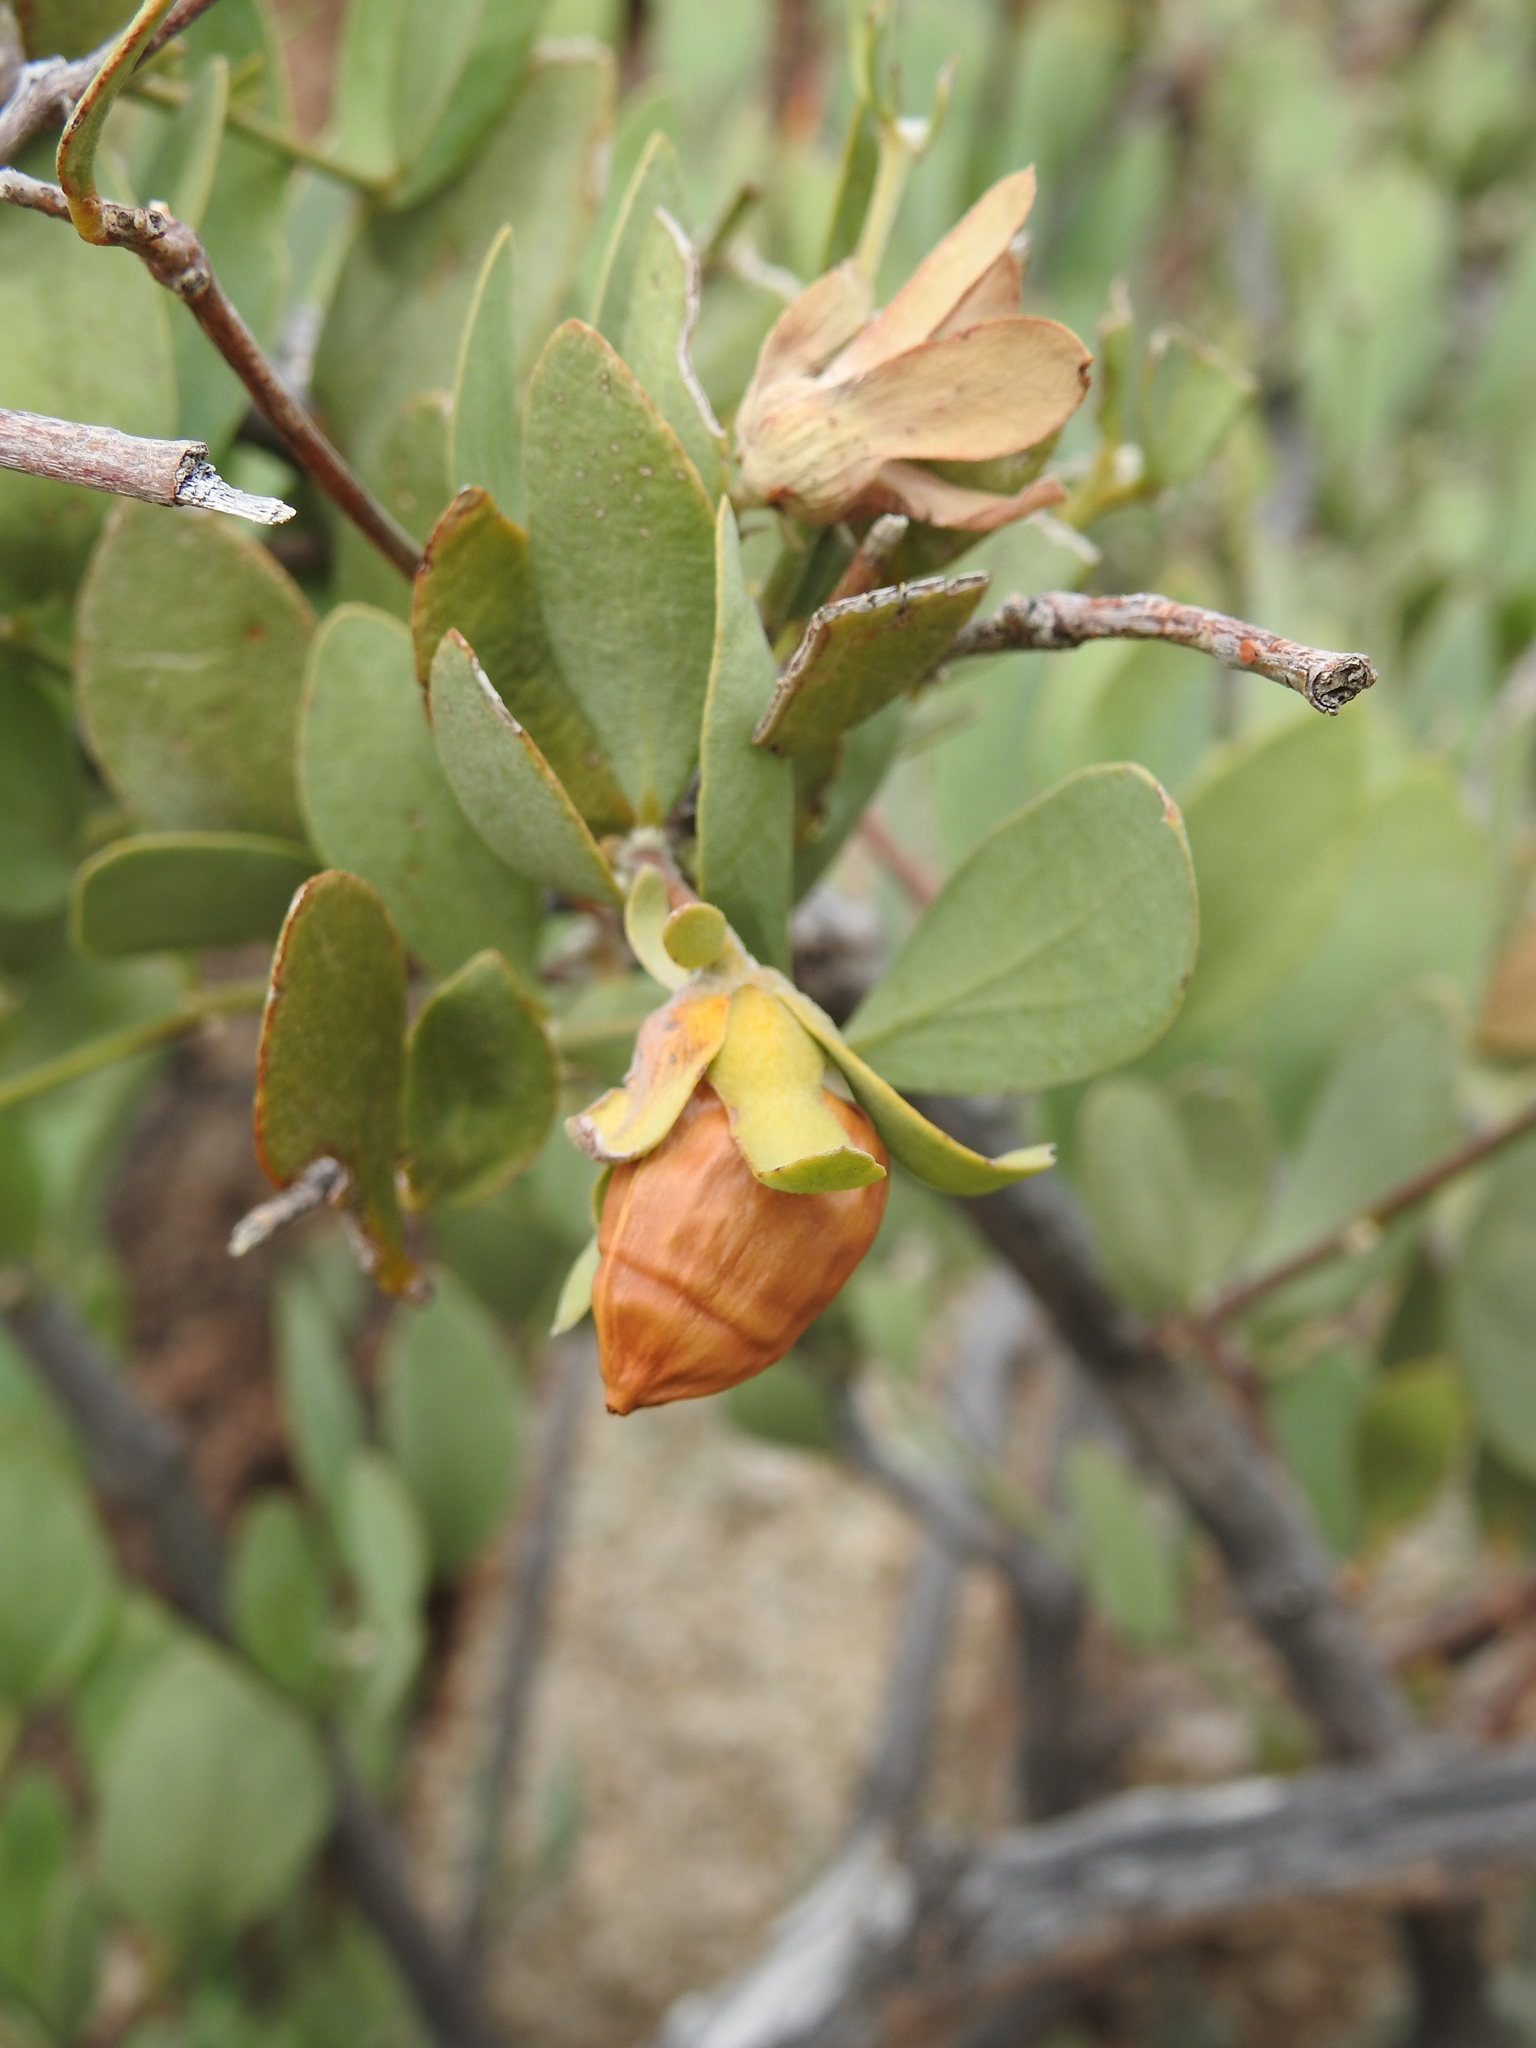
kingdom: Plantae
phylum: Tracheophyta
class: Magnoliopsida
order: Caryophyllales
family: Simmondsiaceae
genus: Simmondsia
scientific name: Simmondsia chinensis
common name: Jojoba
